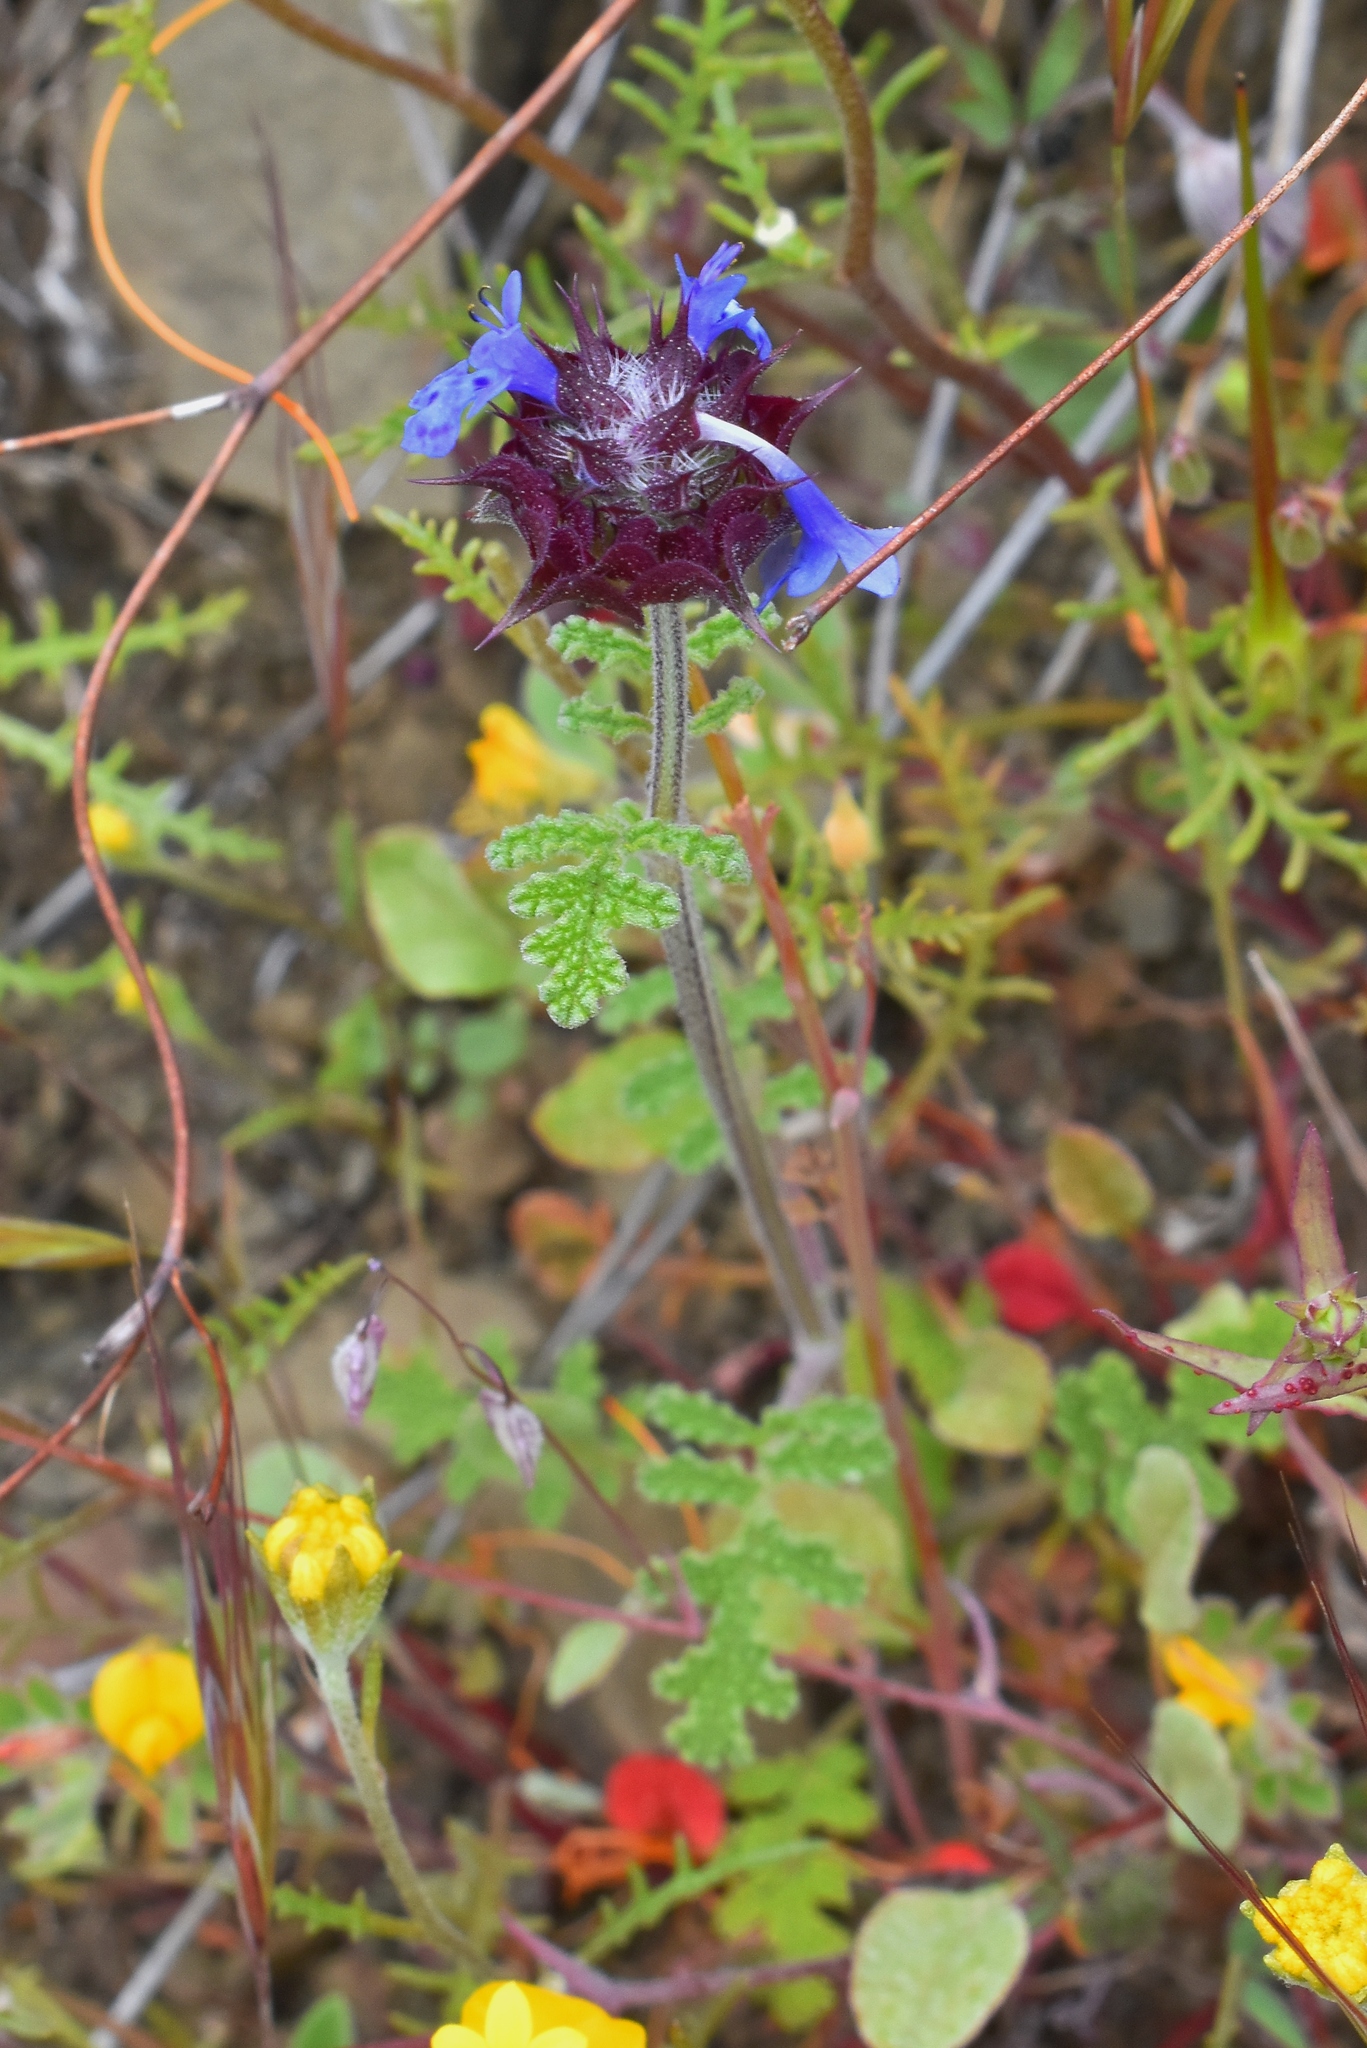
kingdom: Plantae
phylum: Tracheophyta
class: Magnoliopsida
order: Lamiales
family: Lamiaceae
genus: Salvia
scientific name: Salvia columbariae
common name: Chia
